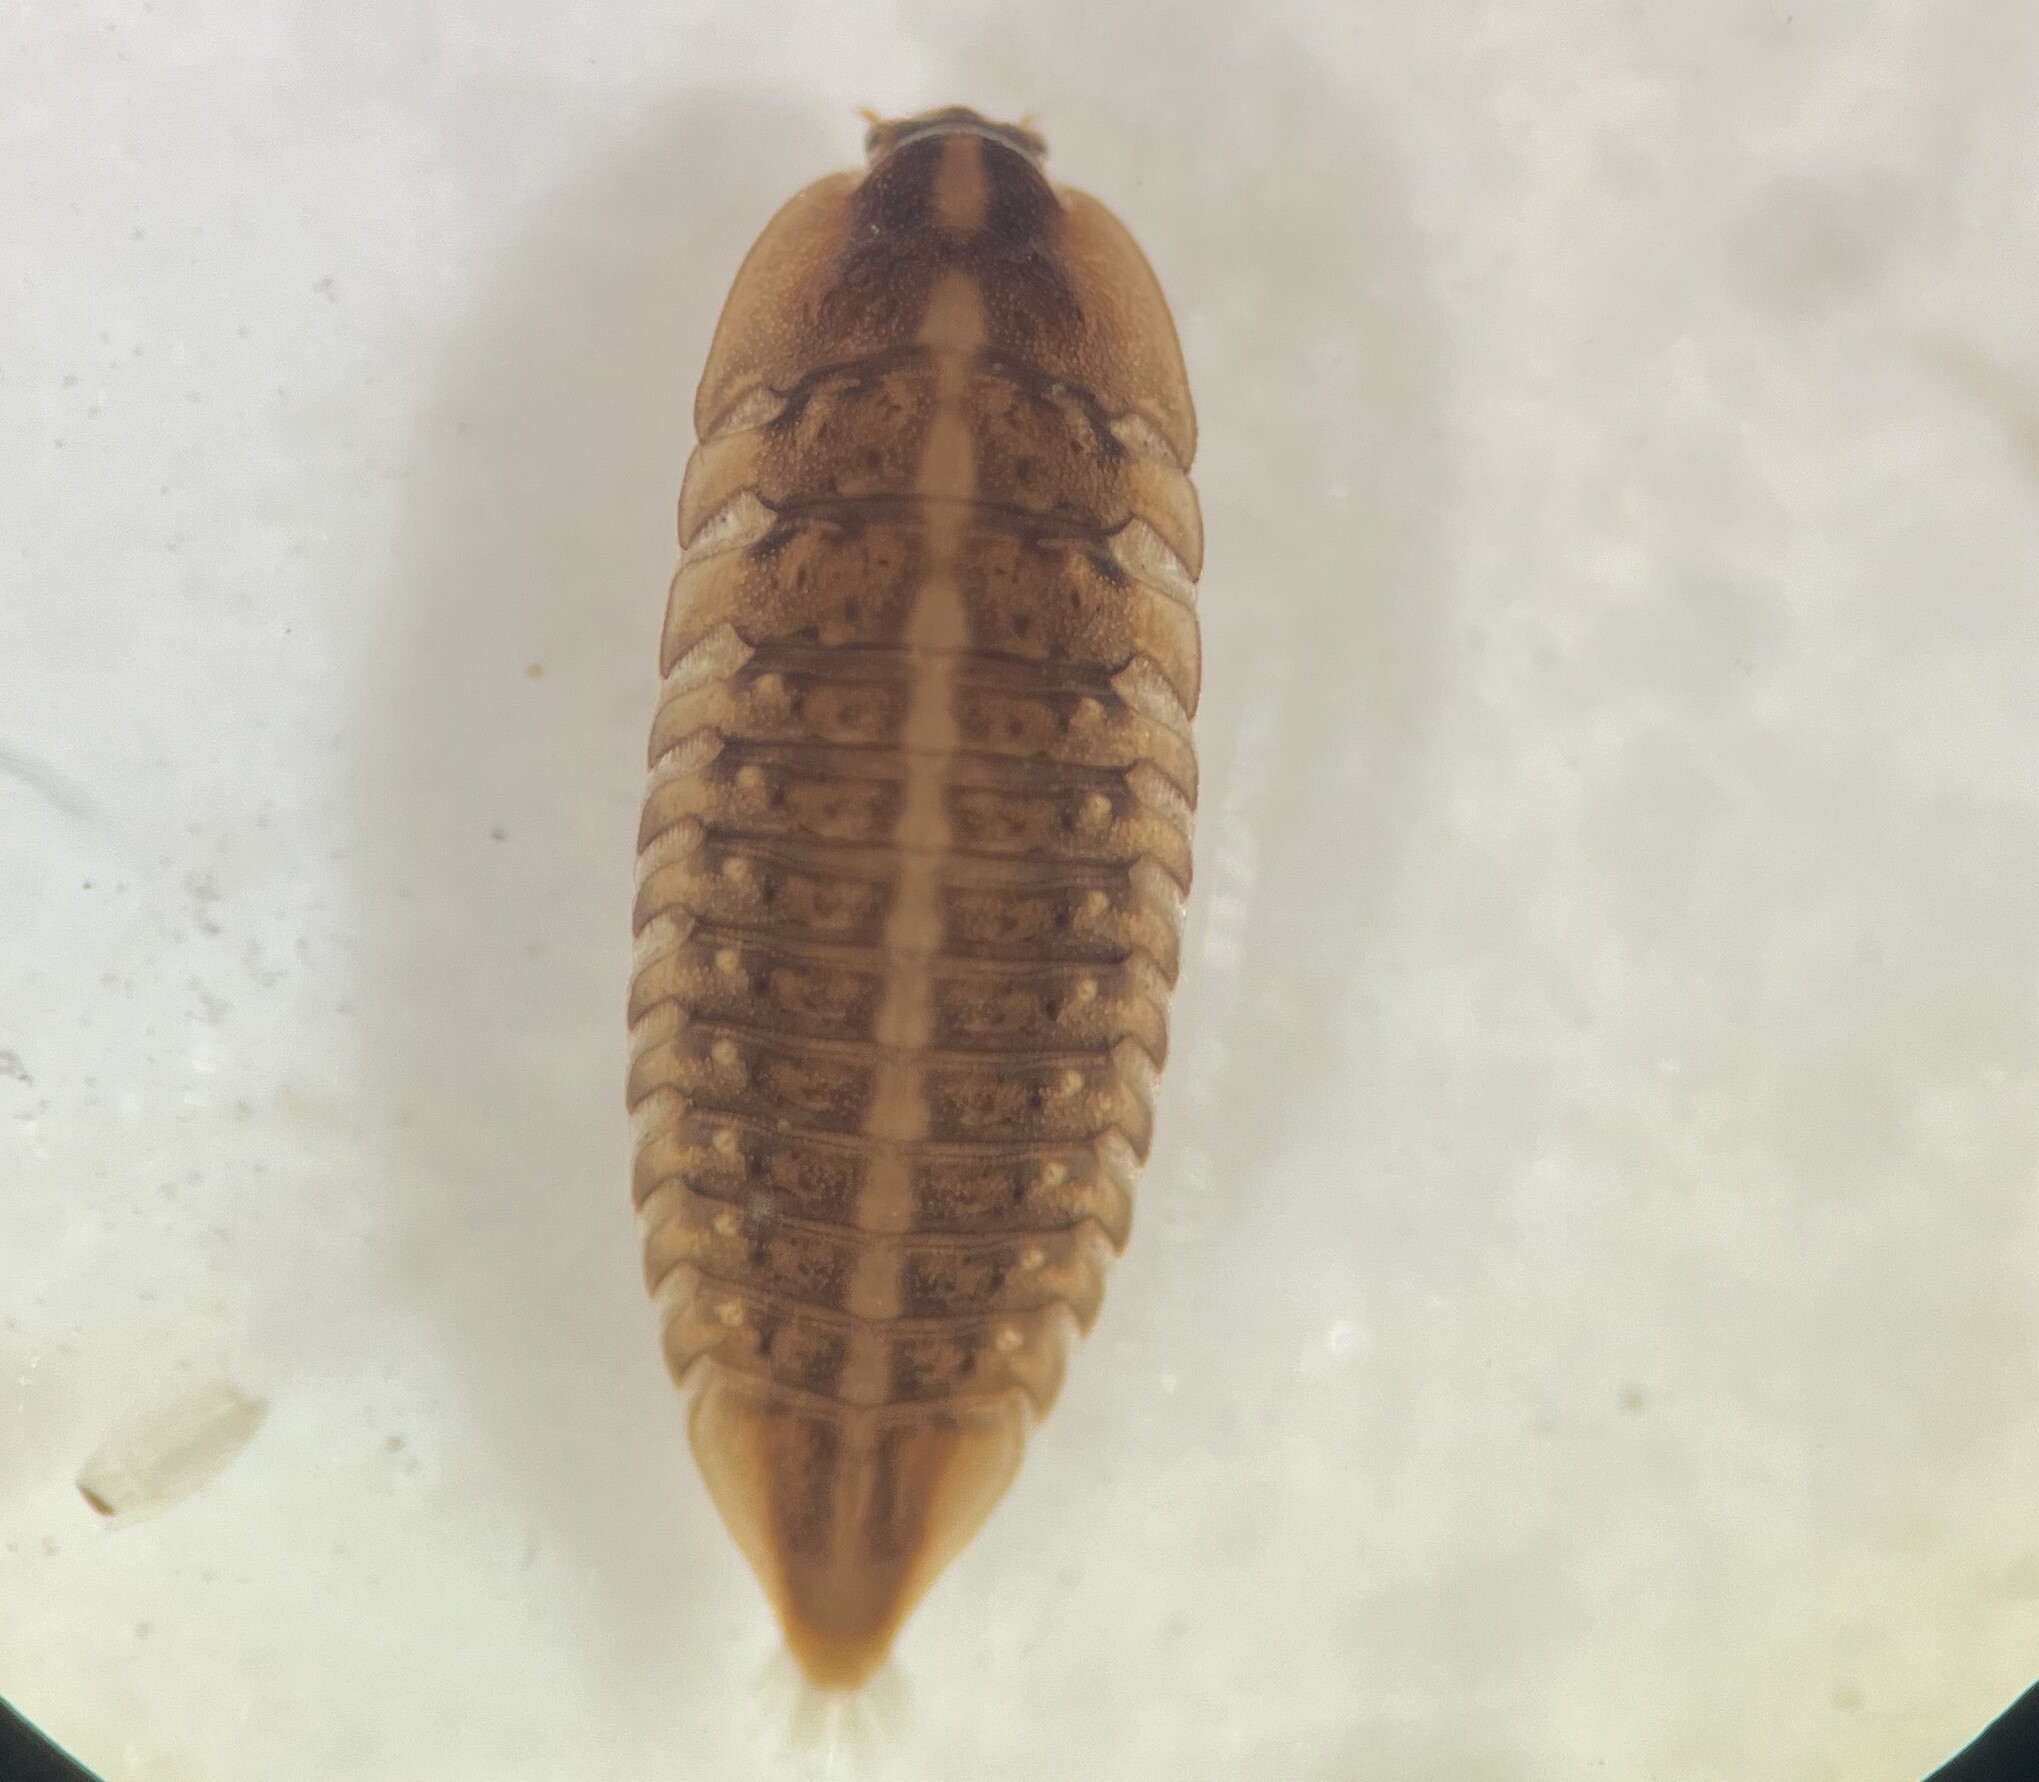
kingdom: Animalia
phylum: Arthropoda
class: Insecta
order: Coleoptera
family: Elmidae
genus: Phanocerus
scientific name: Phanocerus clavicornis
